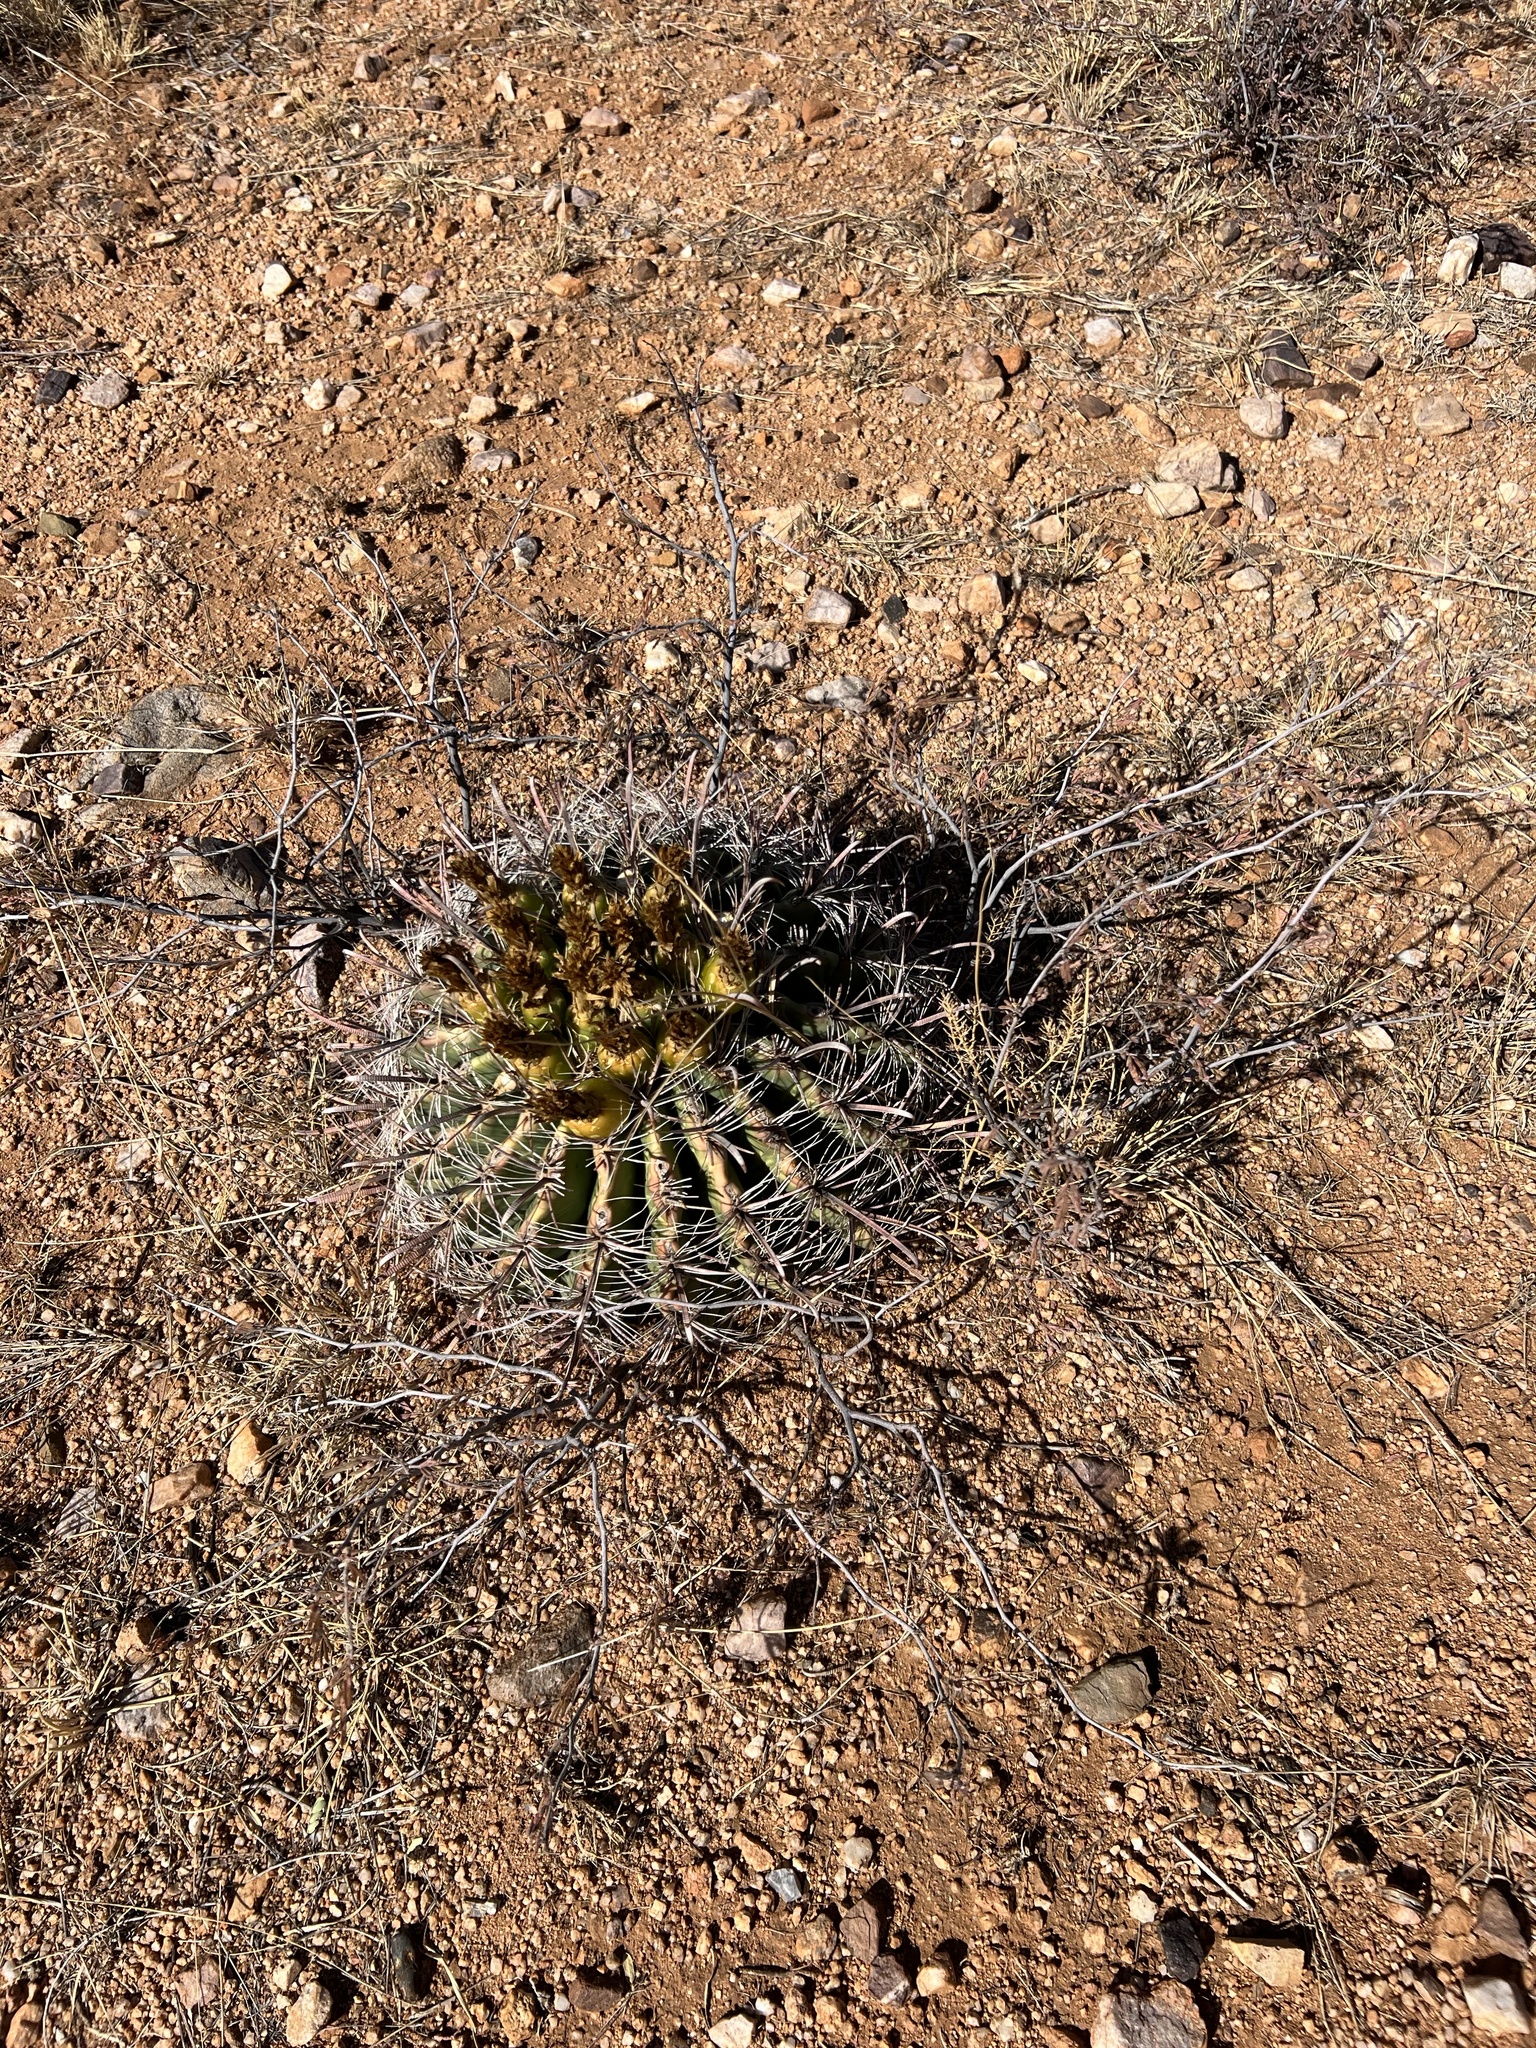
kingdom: Plantae
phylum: Tracheophyta
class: Magnoliopsida
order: Caryophyllales
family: Cactaceae
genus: Ferocactus
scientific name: Ferocactus wislizeni
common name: Candy barrel cactus
